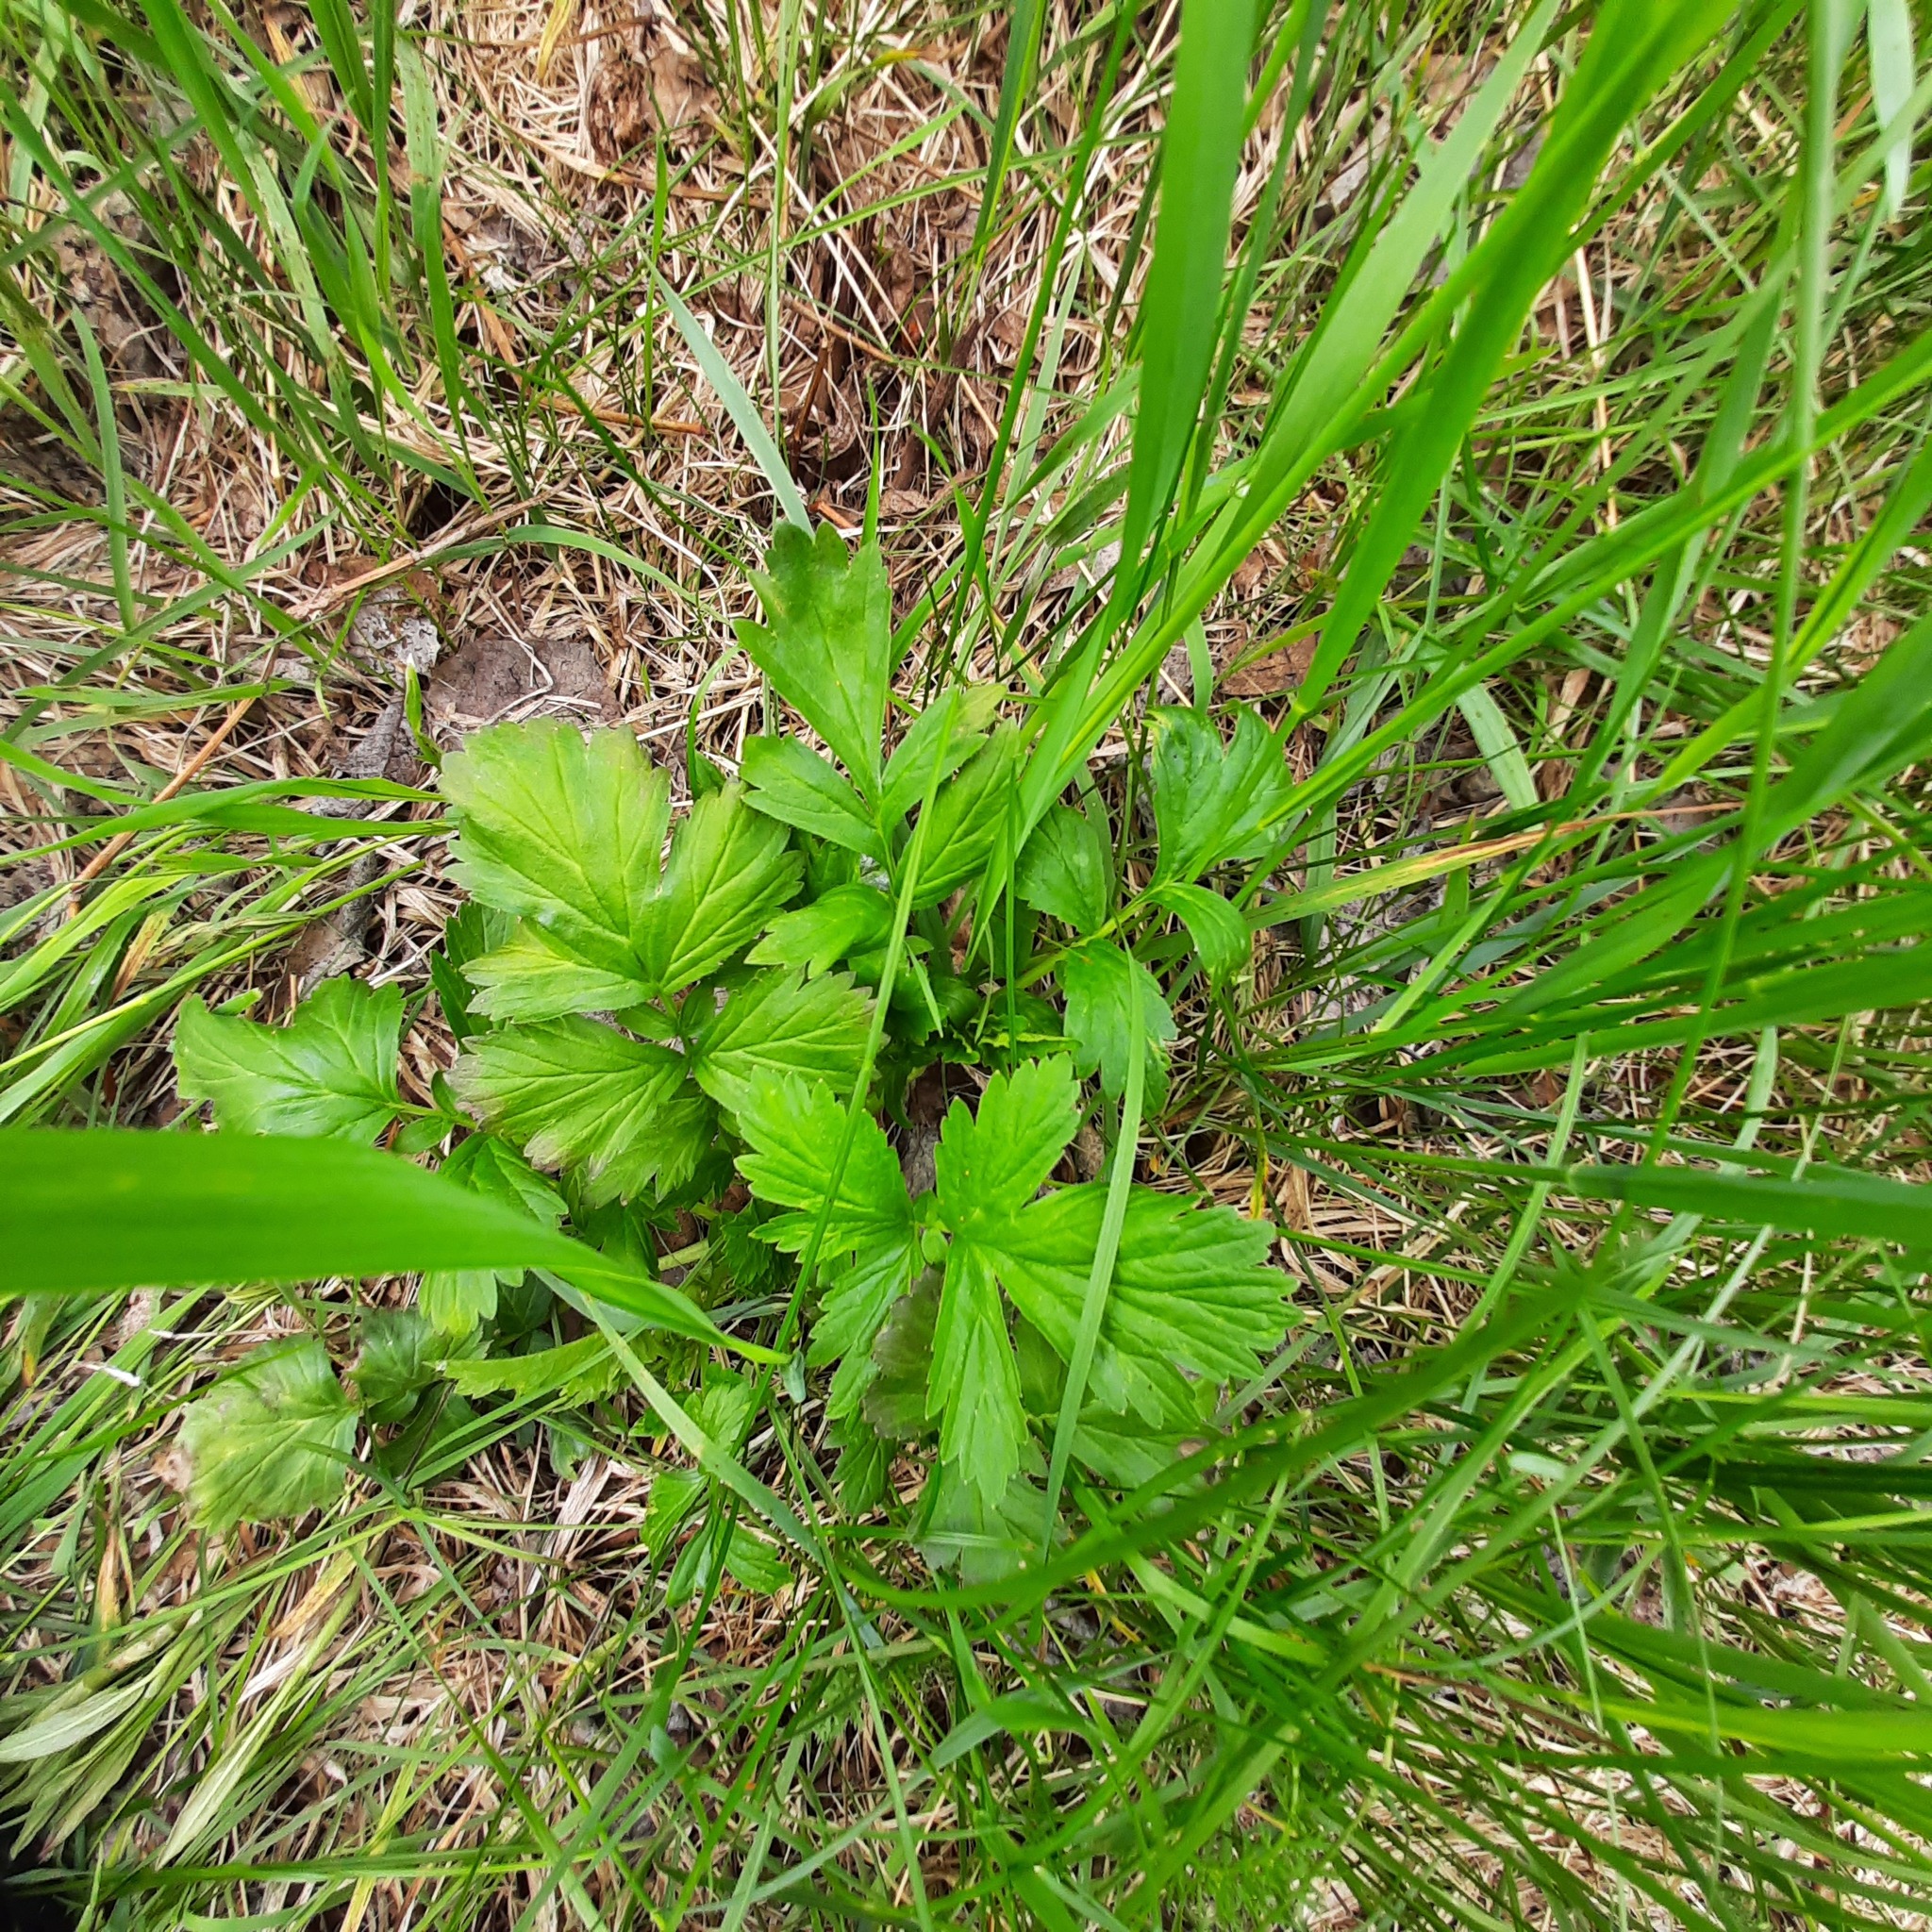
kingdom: Plantae
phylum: Tracheophyta
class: Magnoliopsida
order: Rosales
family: Rosaceae
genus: Geum
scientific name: Geum aleppicum
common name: Yellow avens
